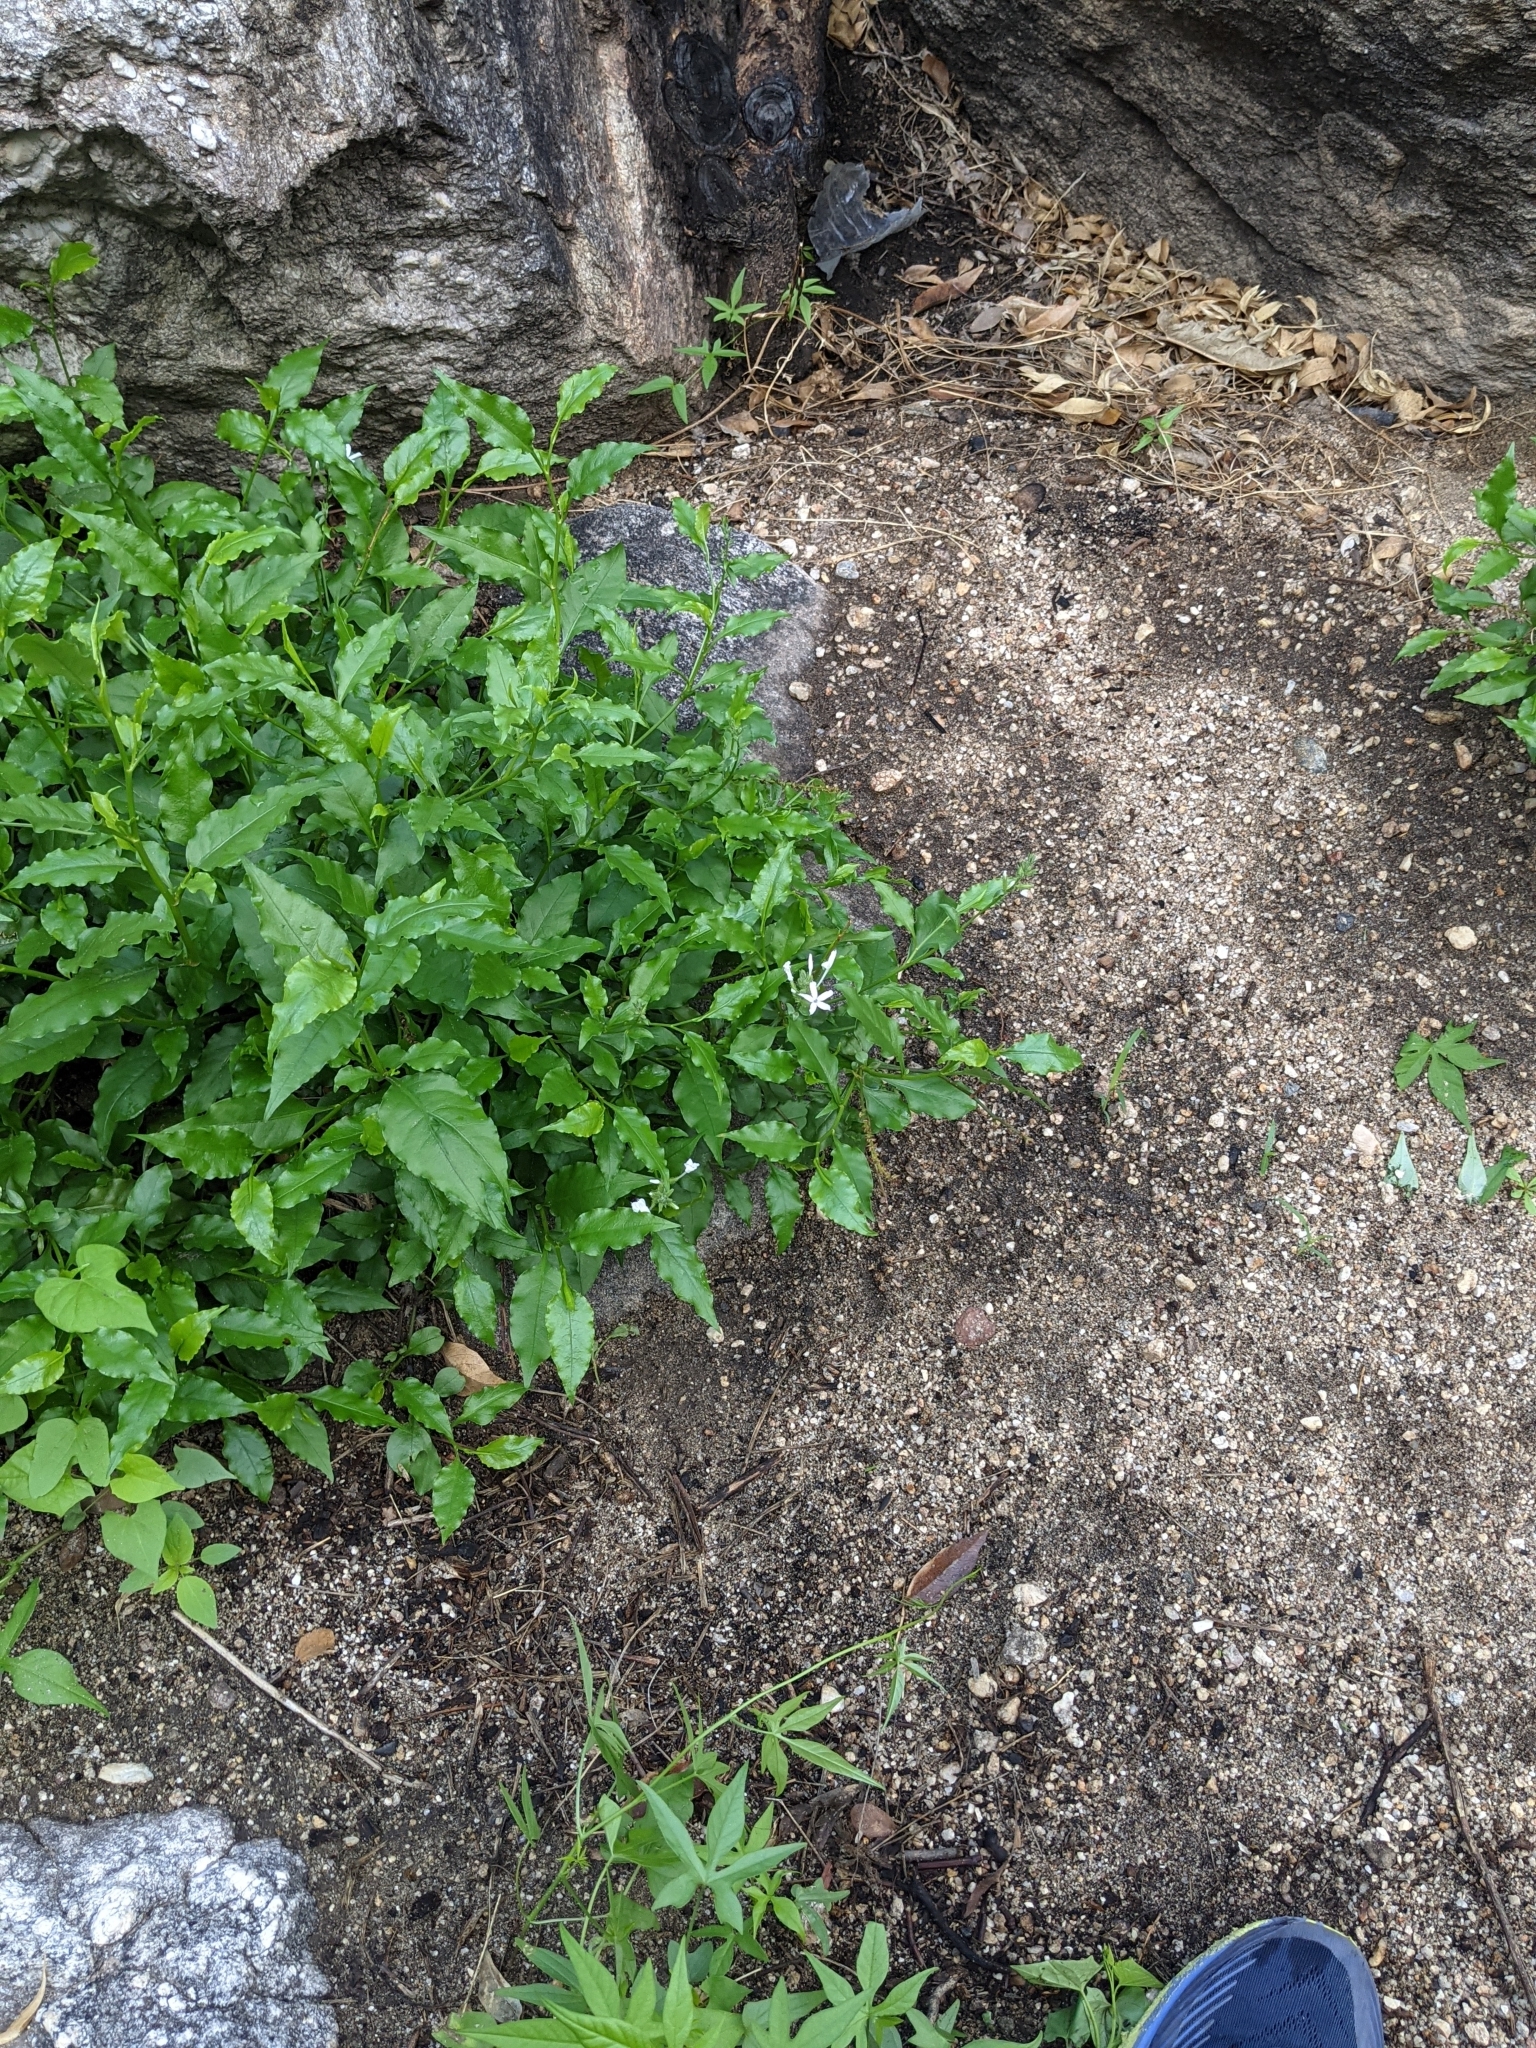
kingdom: Plantae
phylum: Tracheophyta
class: Magnoliopsida
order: Caryophyllales
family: Plumbaginaceae
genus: Plumbago
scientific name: Plumbago zeylanica
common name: Doctorbush
